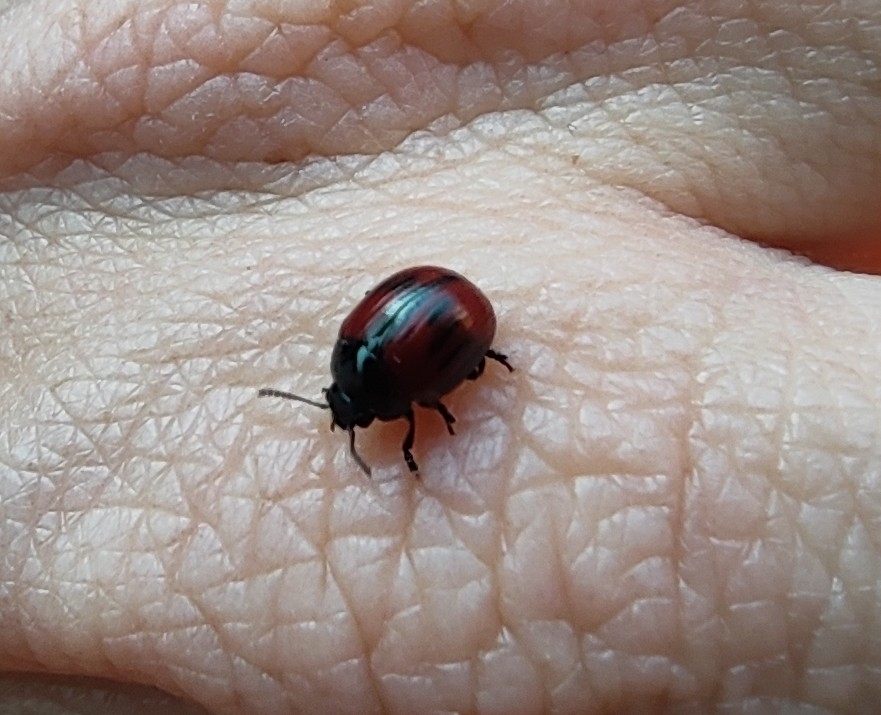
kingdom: Animalia
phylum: Arthropoda
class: Insecta
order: Coleoptera
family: Chrysomelidae
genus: Chrysolina
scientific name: Chrysolina
